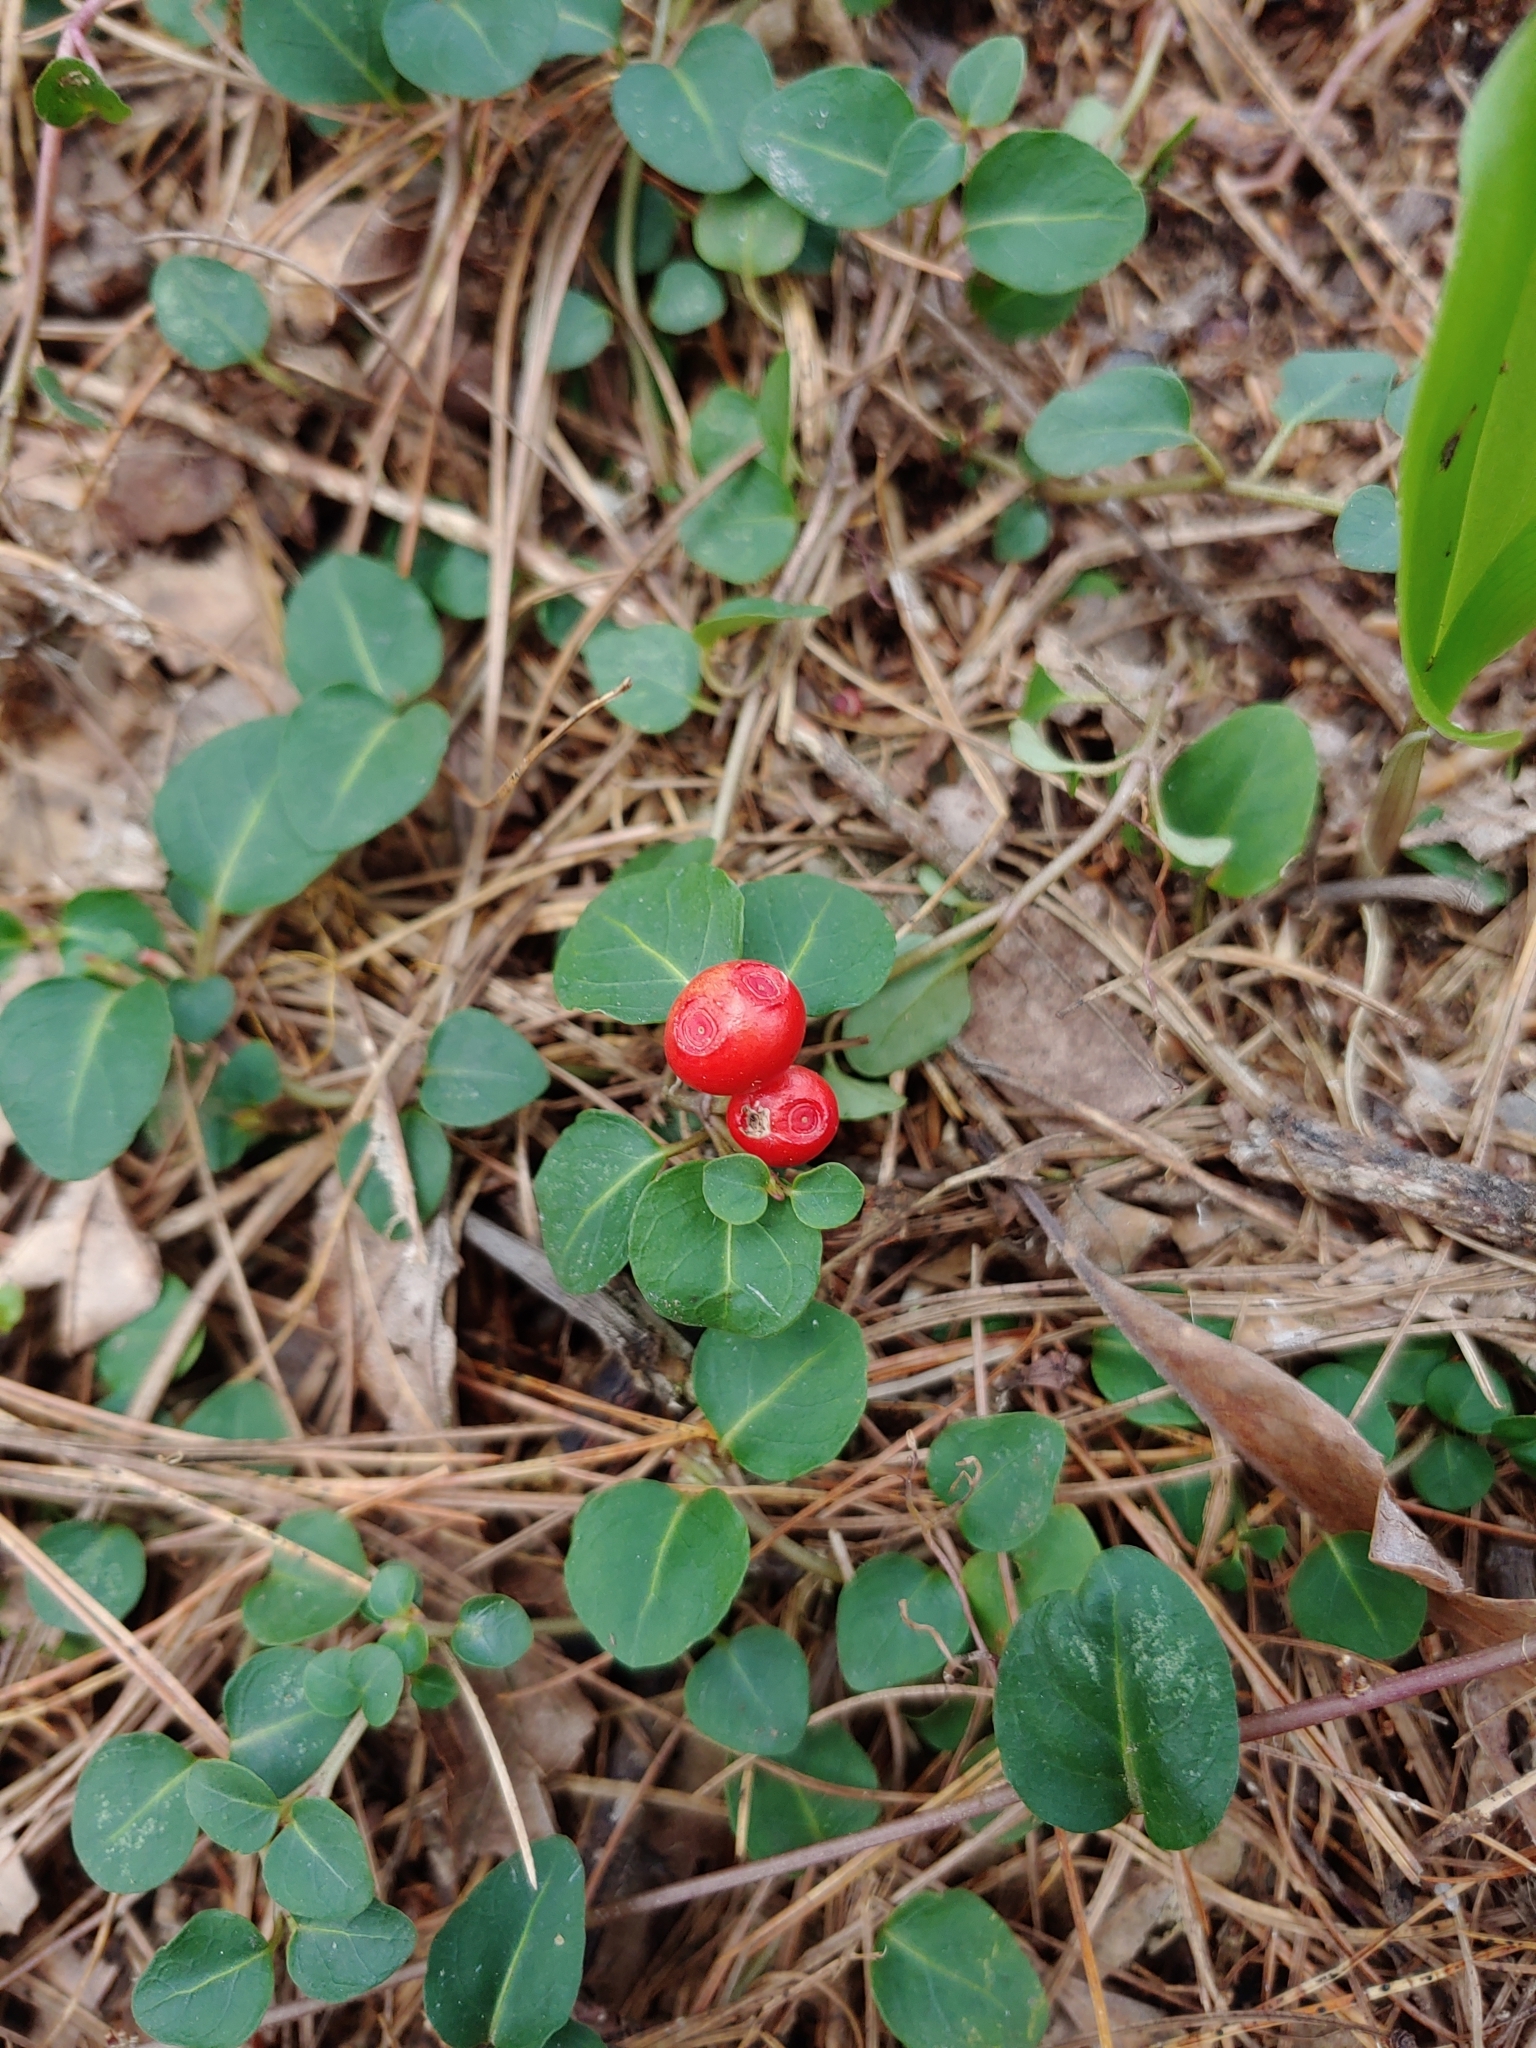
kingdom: Plantae
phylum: Tracheophyta
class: Magnoliopsida
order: Gentianales
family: Rubiaceae
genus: Mitchella
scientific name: Mitchella repens
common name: Partridge-berry
